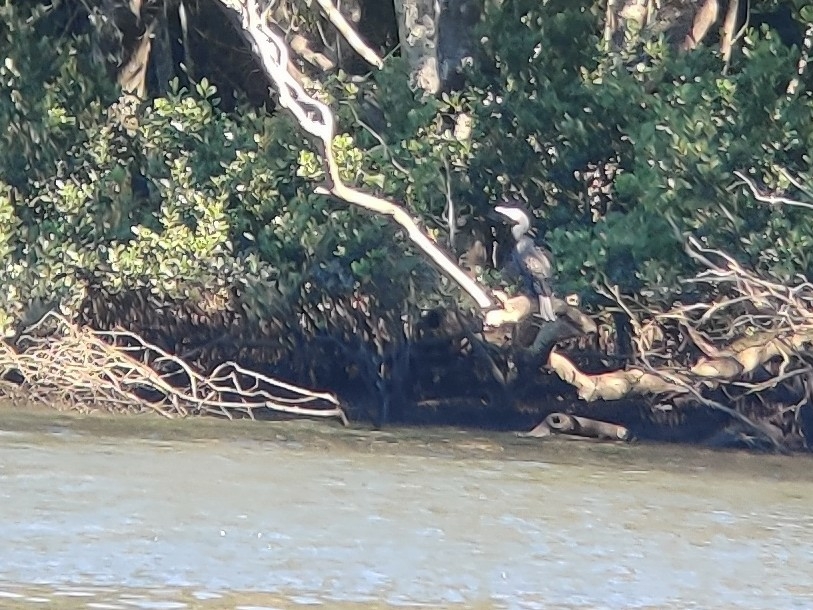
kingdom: Animalia
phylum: Chordata
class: Aves
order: Suliformes
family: Phalacrocoracidae
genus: Phalacrocorax
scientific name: Phalacrocorax carbo
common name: Great cormorant
